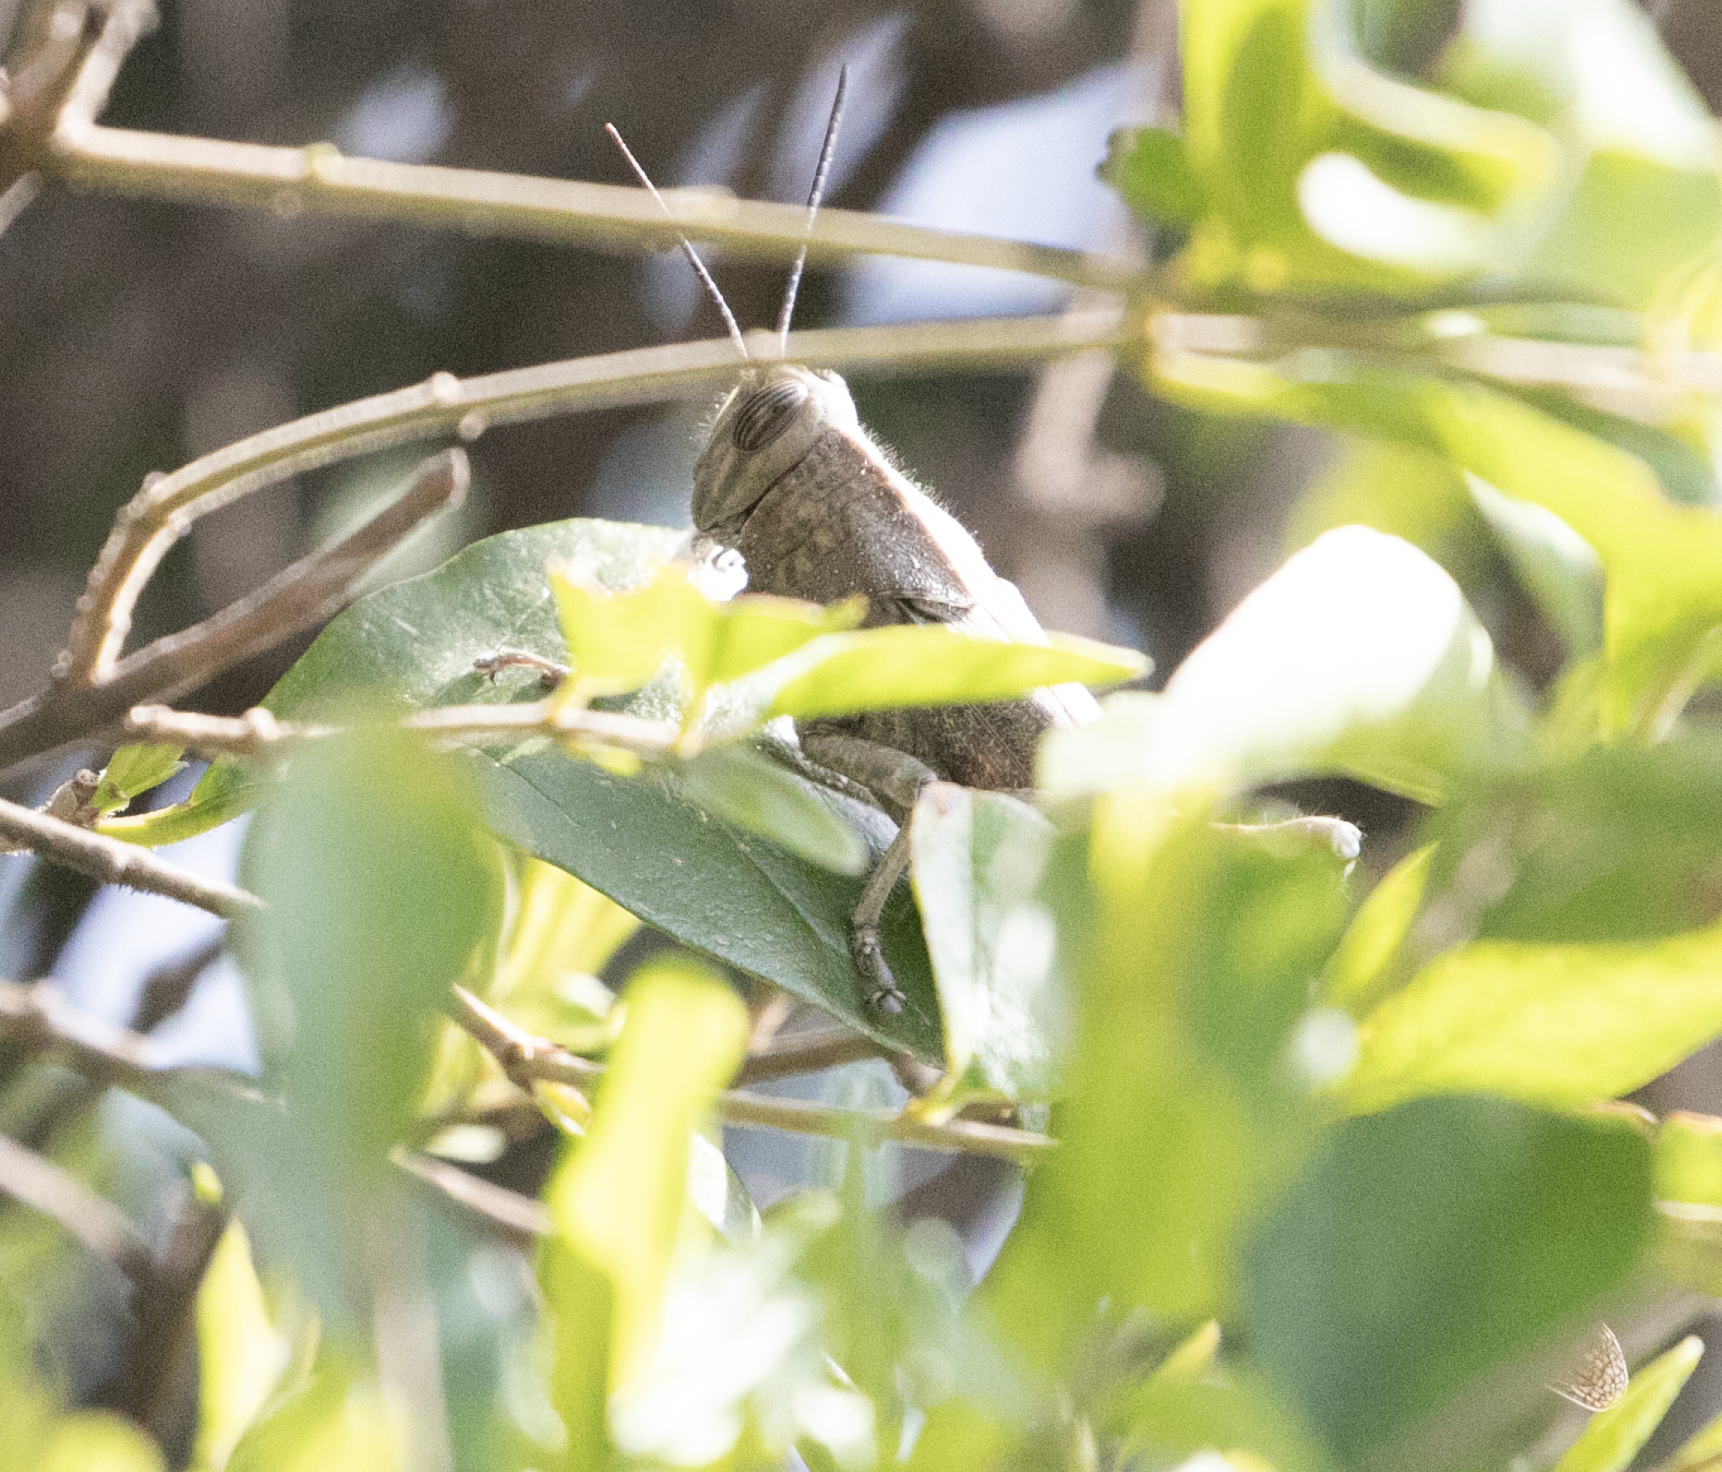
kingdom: Animalia
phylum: Arthropoda
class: Insecta
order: Orthoptera
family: Acrididae
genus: Anacridium
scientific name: Anacridium aegyptium
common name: Egyptian grasshopper
